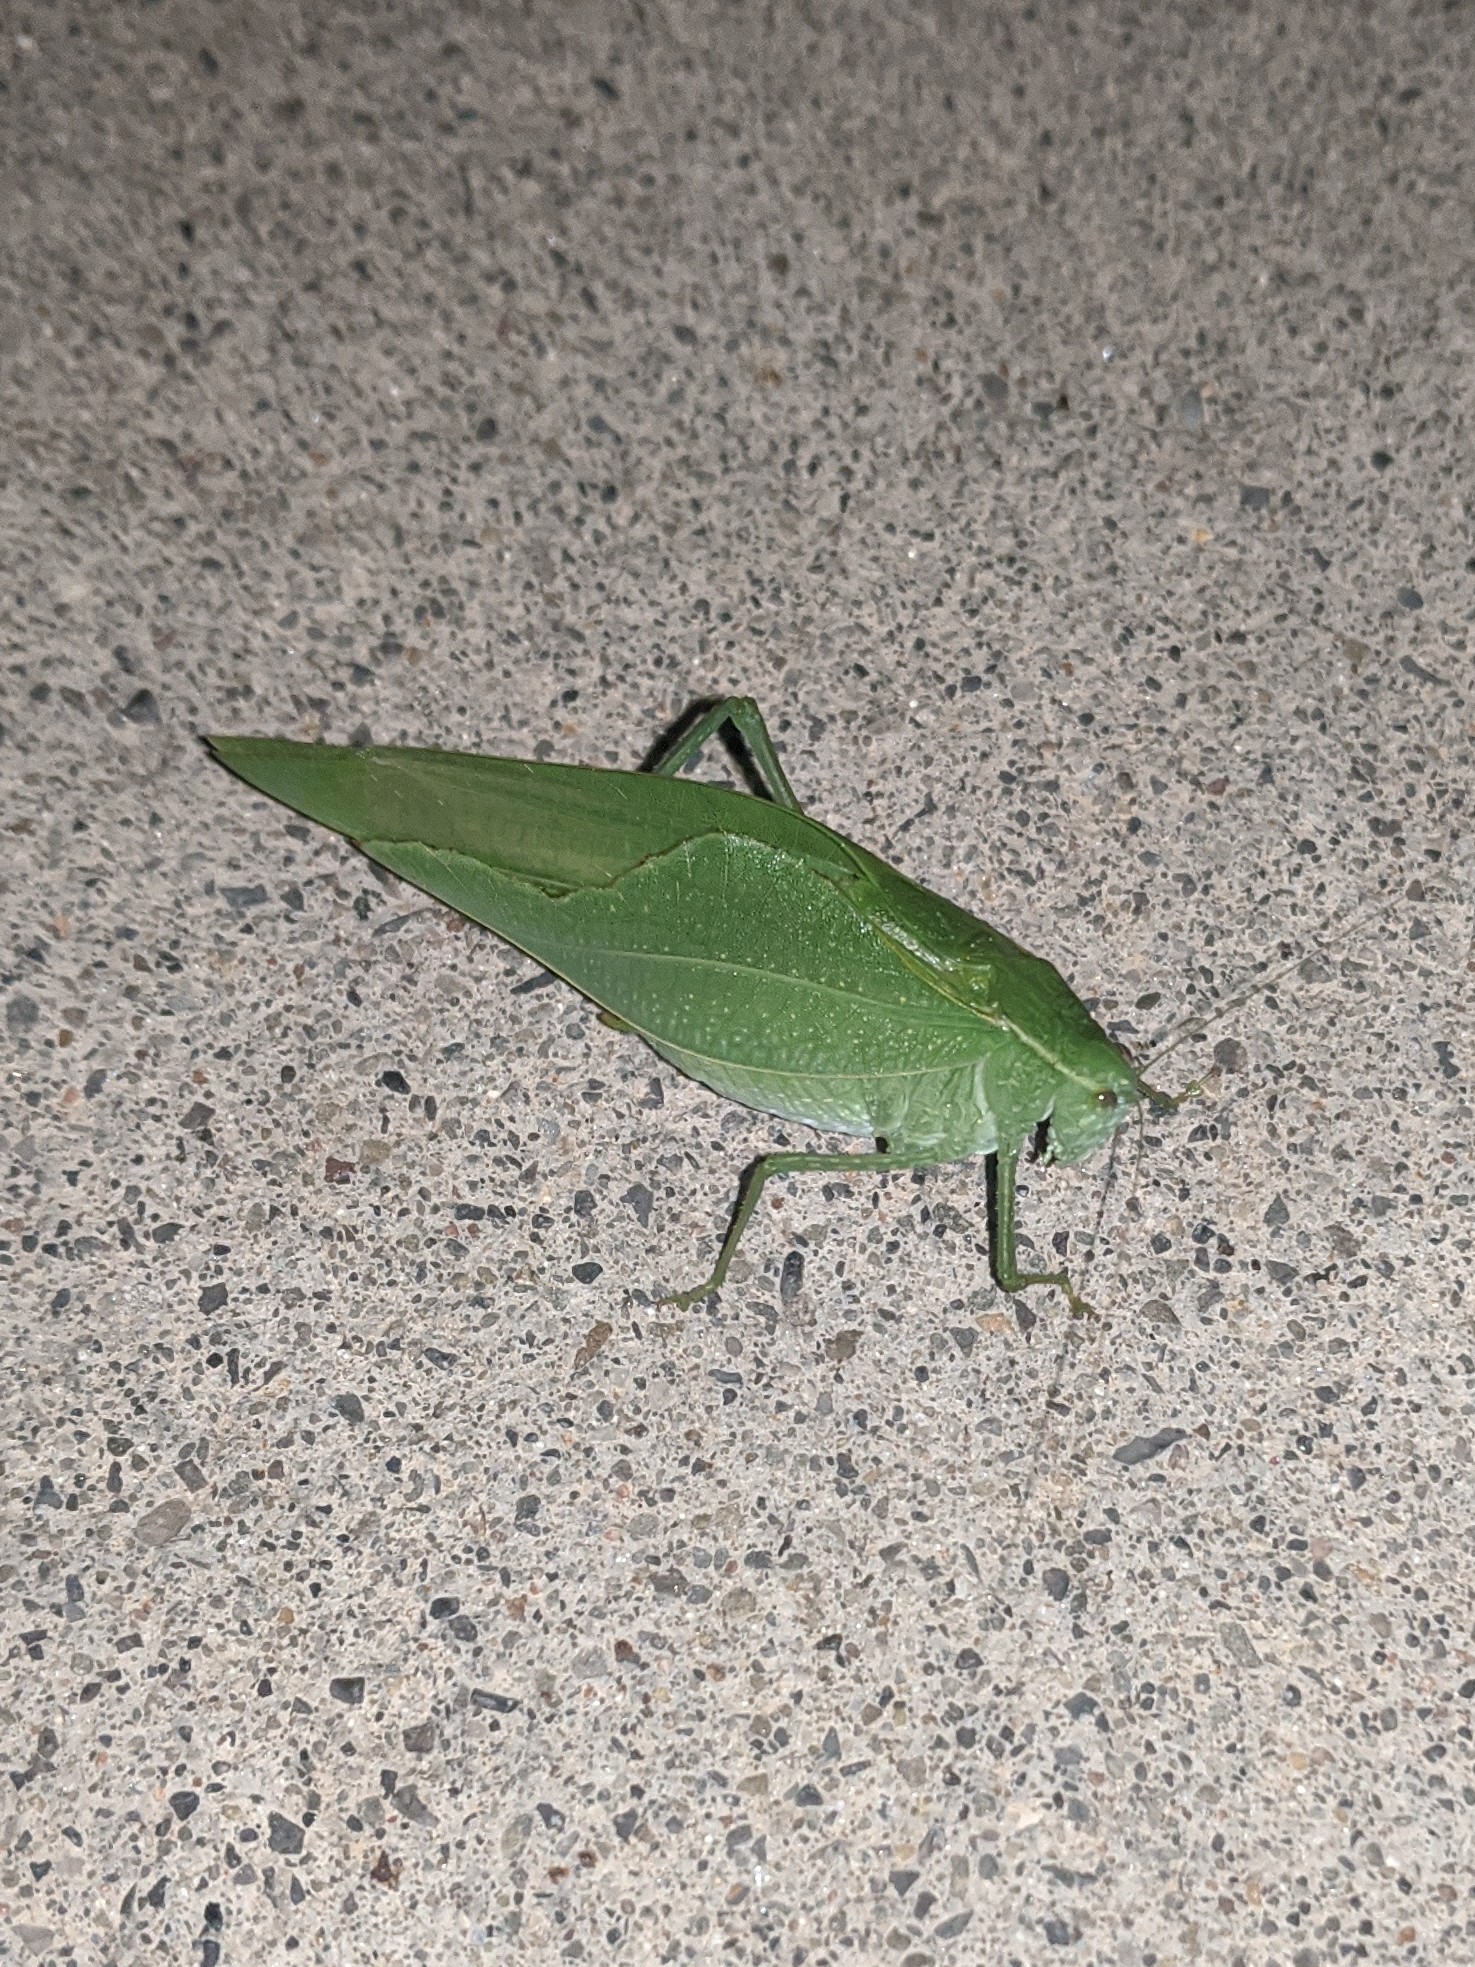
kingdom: Animalia
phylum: Arthropoda
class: Insecta
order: Orthoptera
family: Tettigoniidae
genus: Microcentrum
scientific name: Microcentrum rhombifolium
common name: Broad-winged katydid
